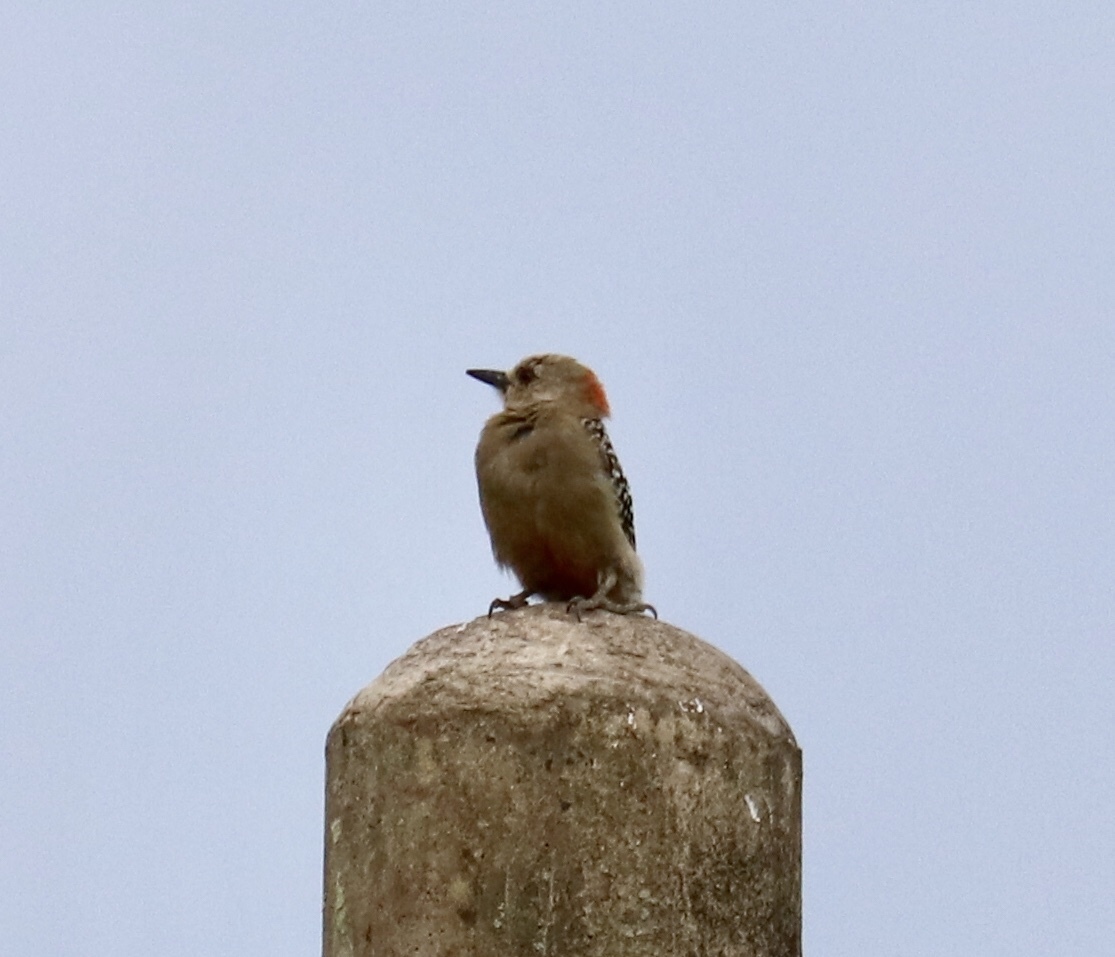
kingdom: Animalia
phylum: Chordata
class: Aves
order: Piciformes
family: Picidae
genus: Melanerpes
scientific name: Melanerpes rubricapillus
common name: Red-crowned woodpecker
